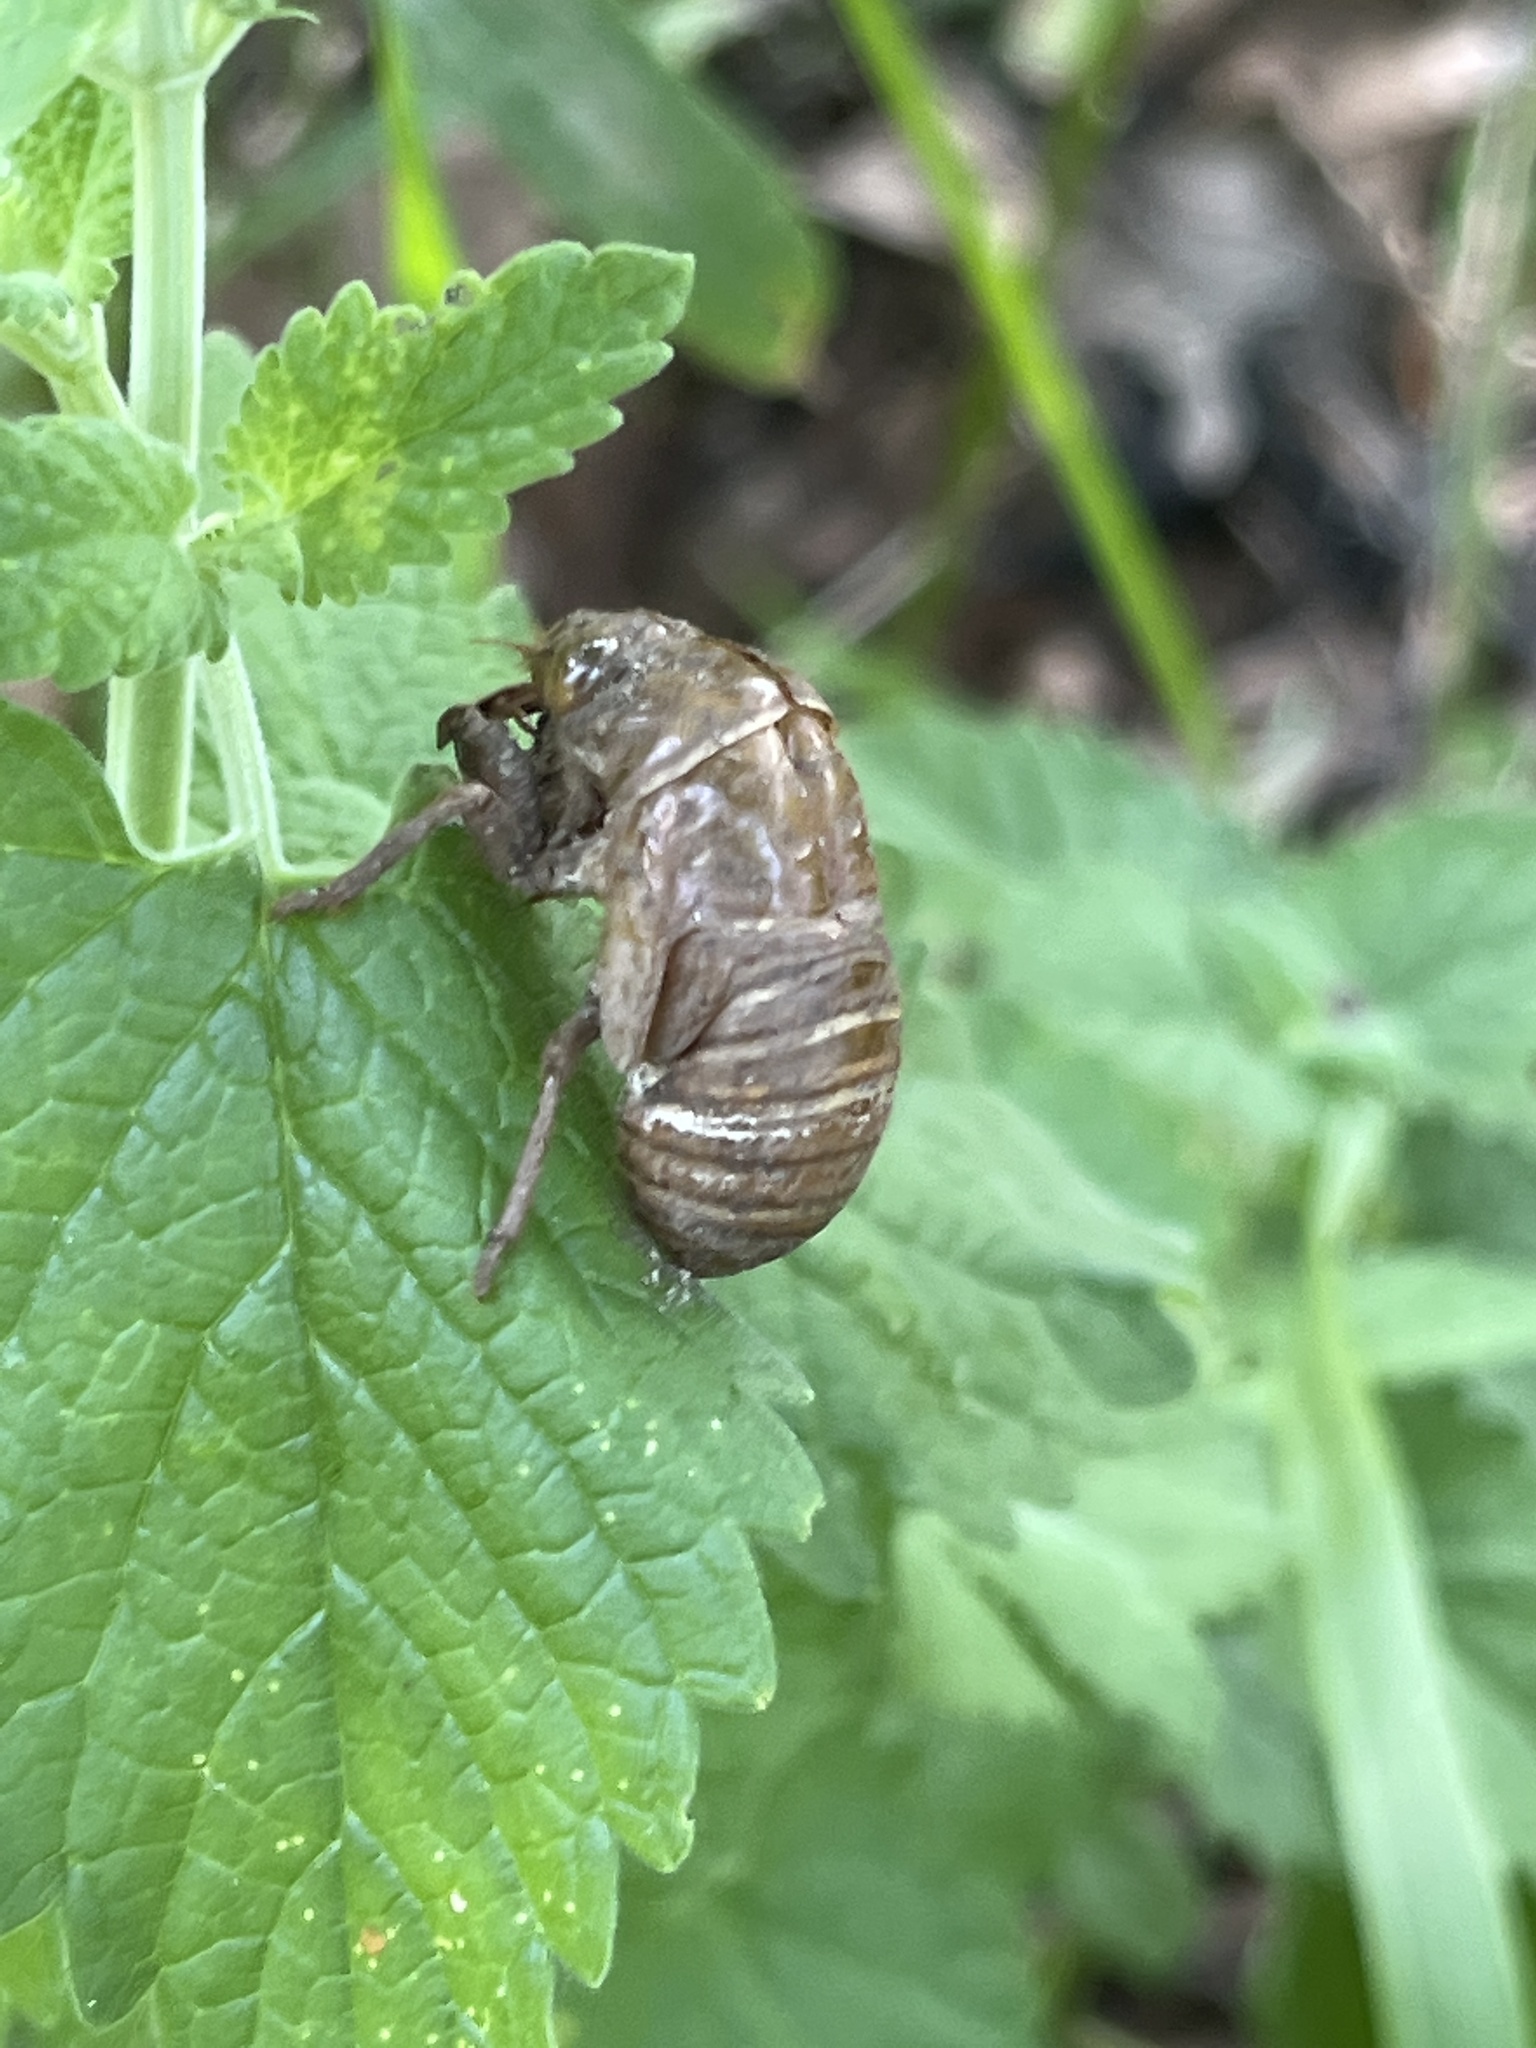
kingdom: Animalia
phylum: Arthropoda
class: Insecta
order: Hemiptera
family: Cicadidae
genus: Neotibicen
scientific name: Neotibicen canicularis
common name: God-day cicada
